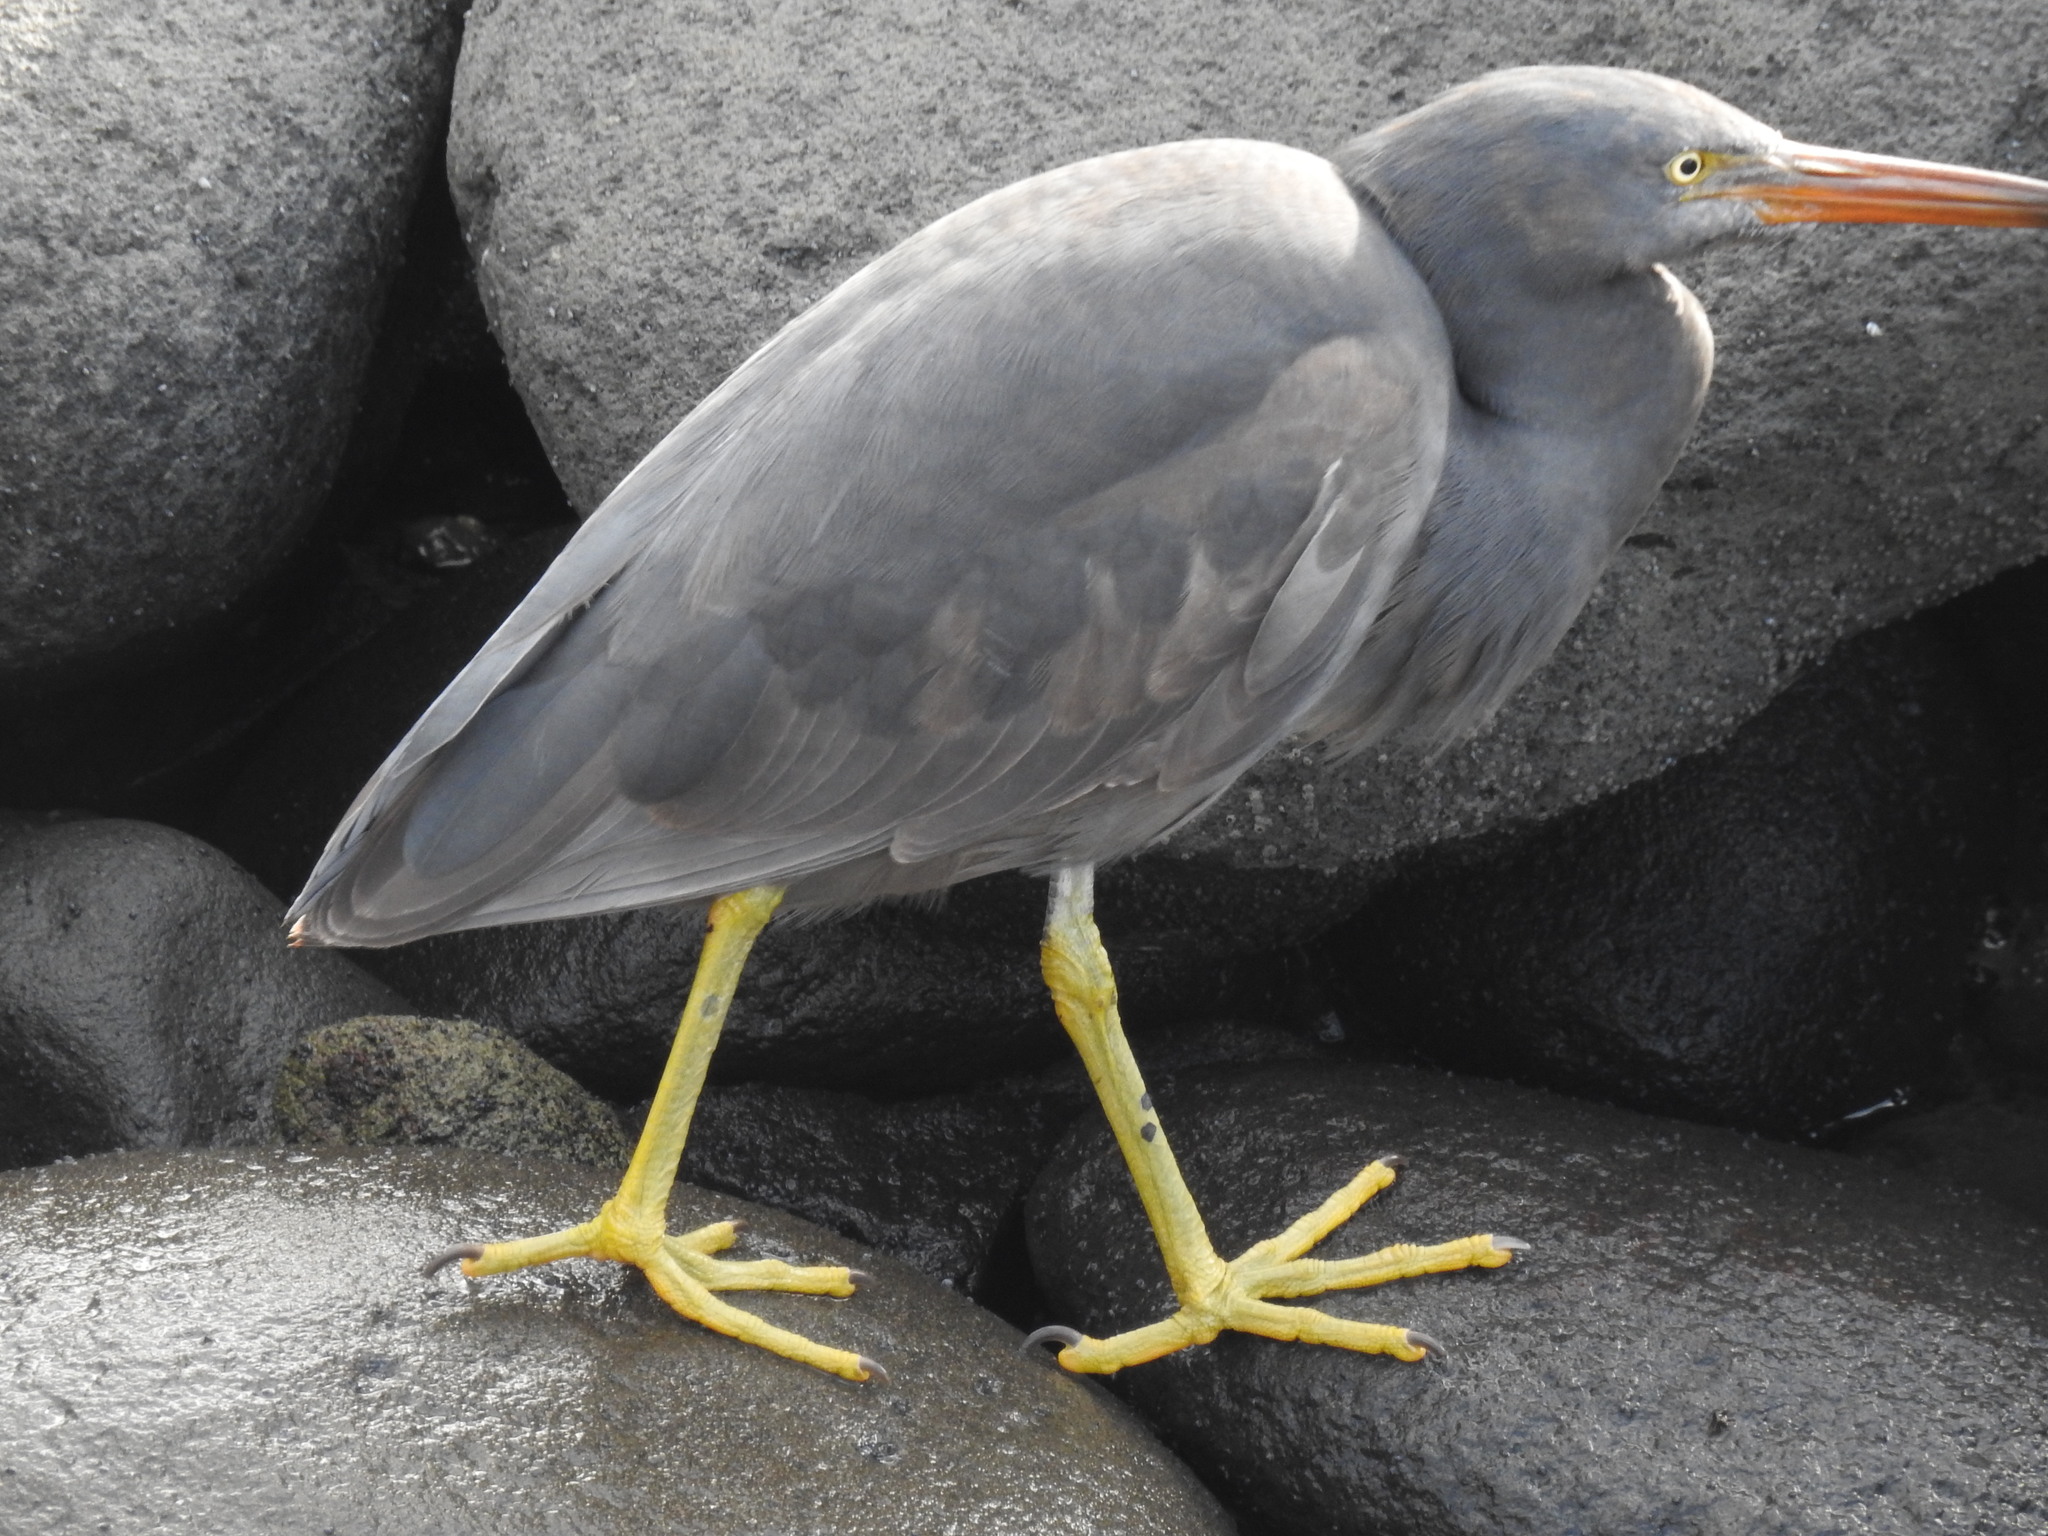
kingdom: Animalia
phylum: Chordata
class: Aves
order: Pelecaniformes
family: Ardeidae
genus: Egretta
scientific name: Egretta sacra
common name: Pacific reef heron
